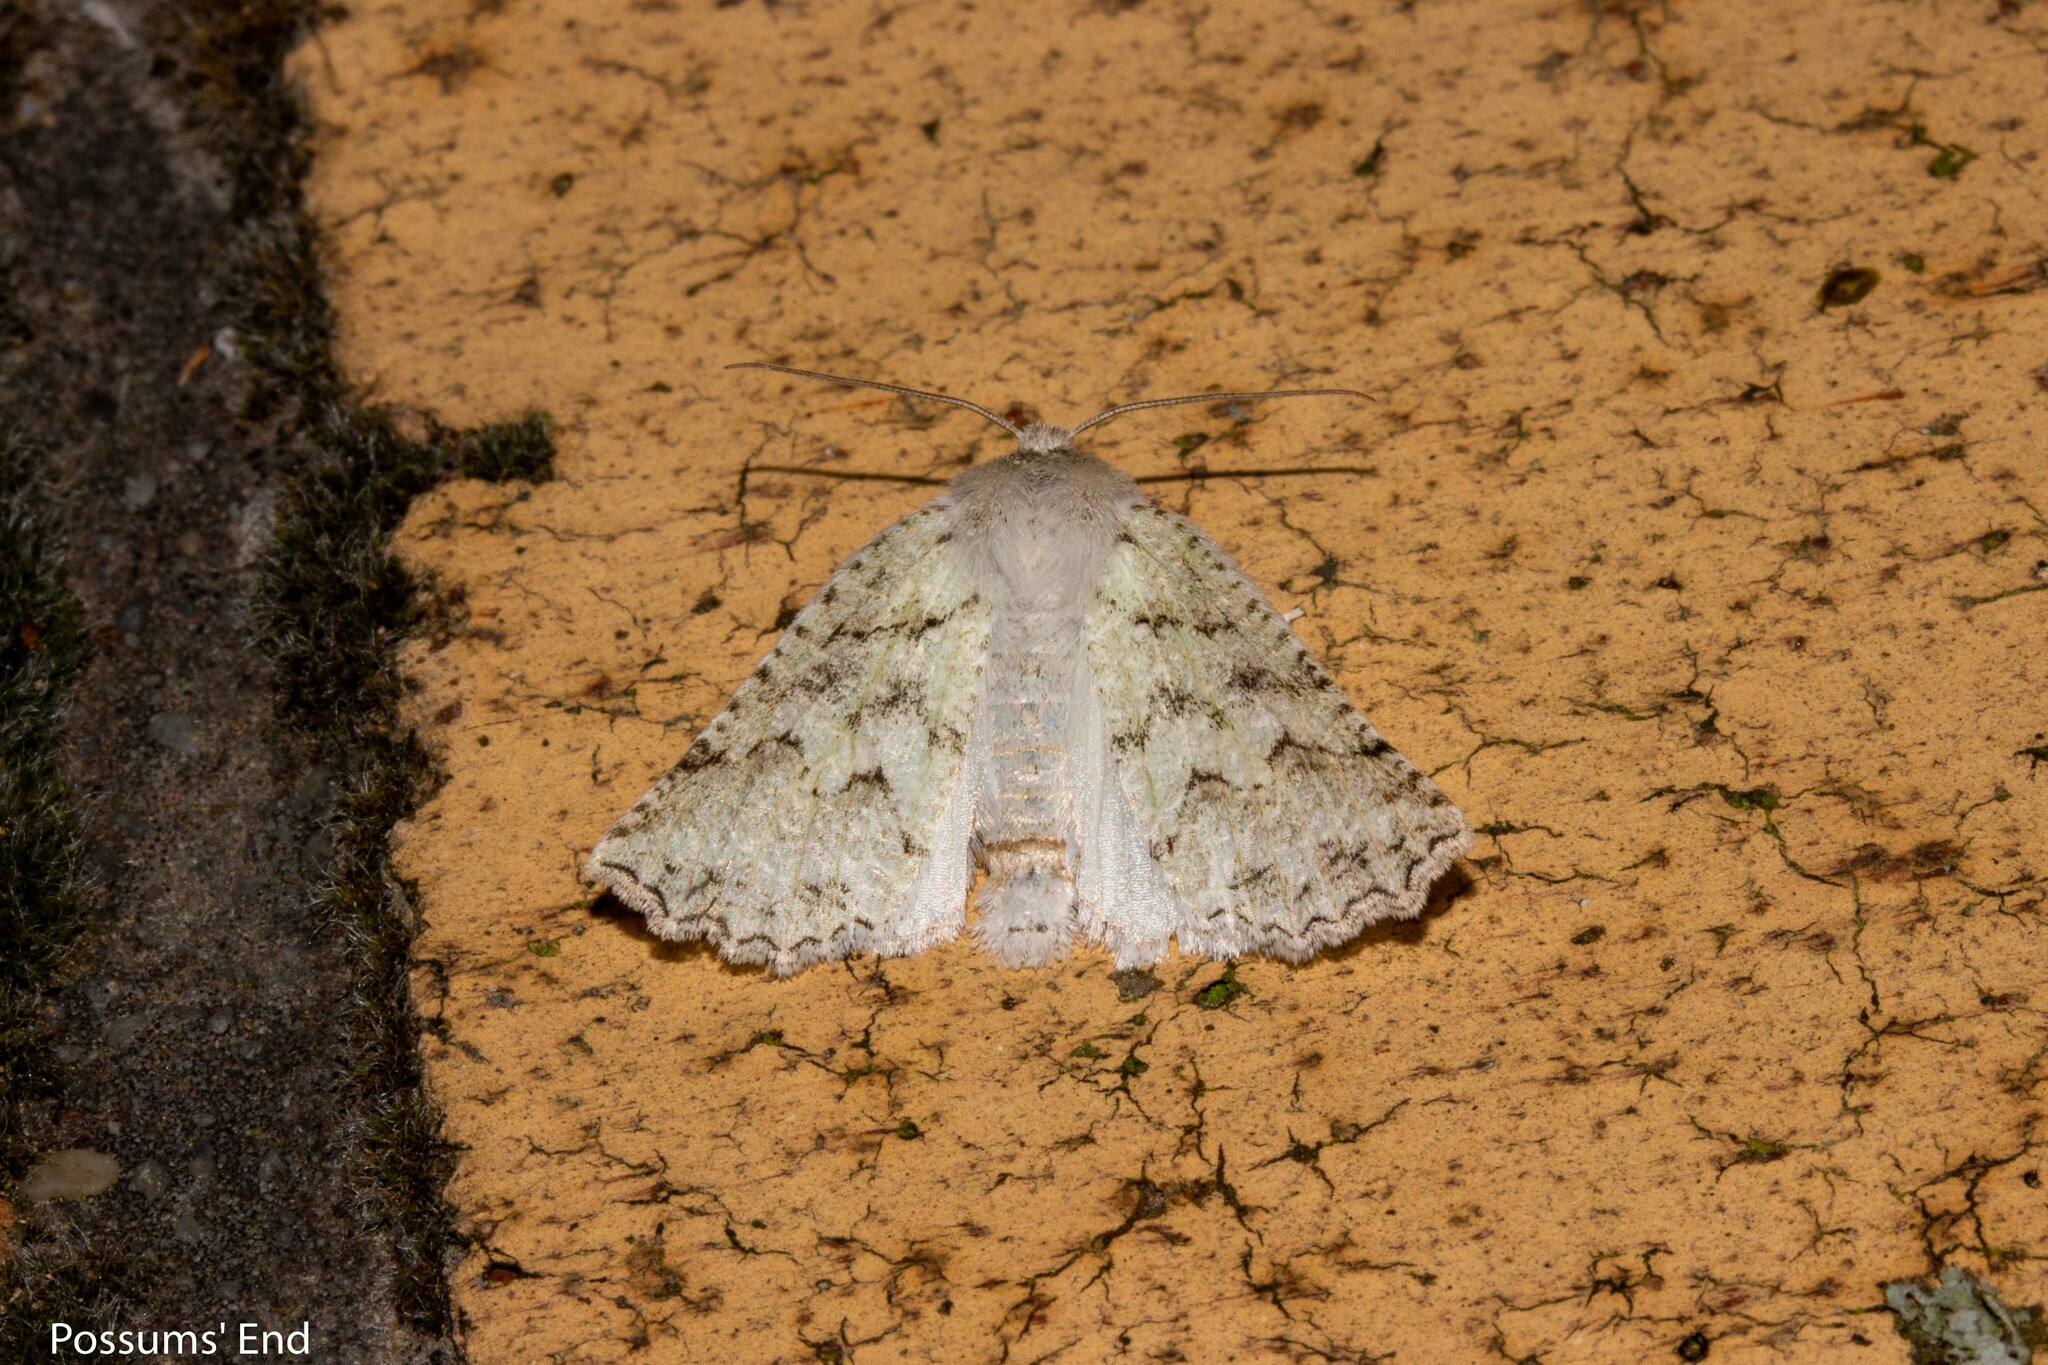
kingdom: Animalia
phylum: Arthropoda
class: Insecta
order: Lepidoptera
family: Geometridae
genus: Declana
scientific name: Declana niveata
